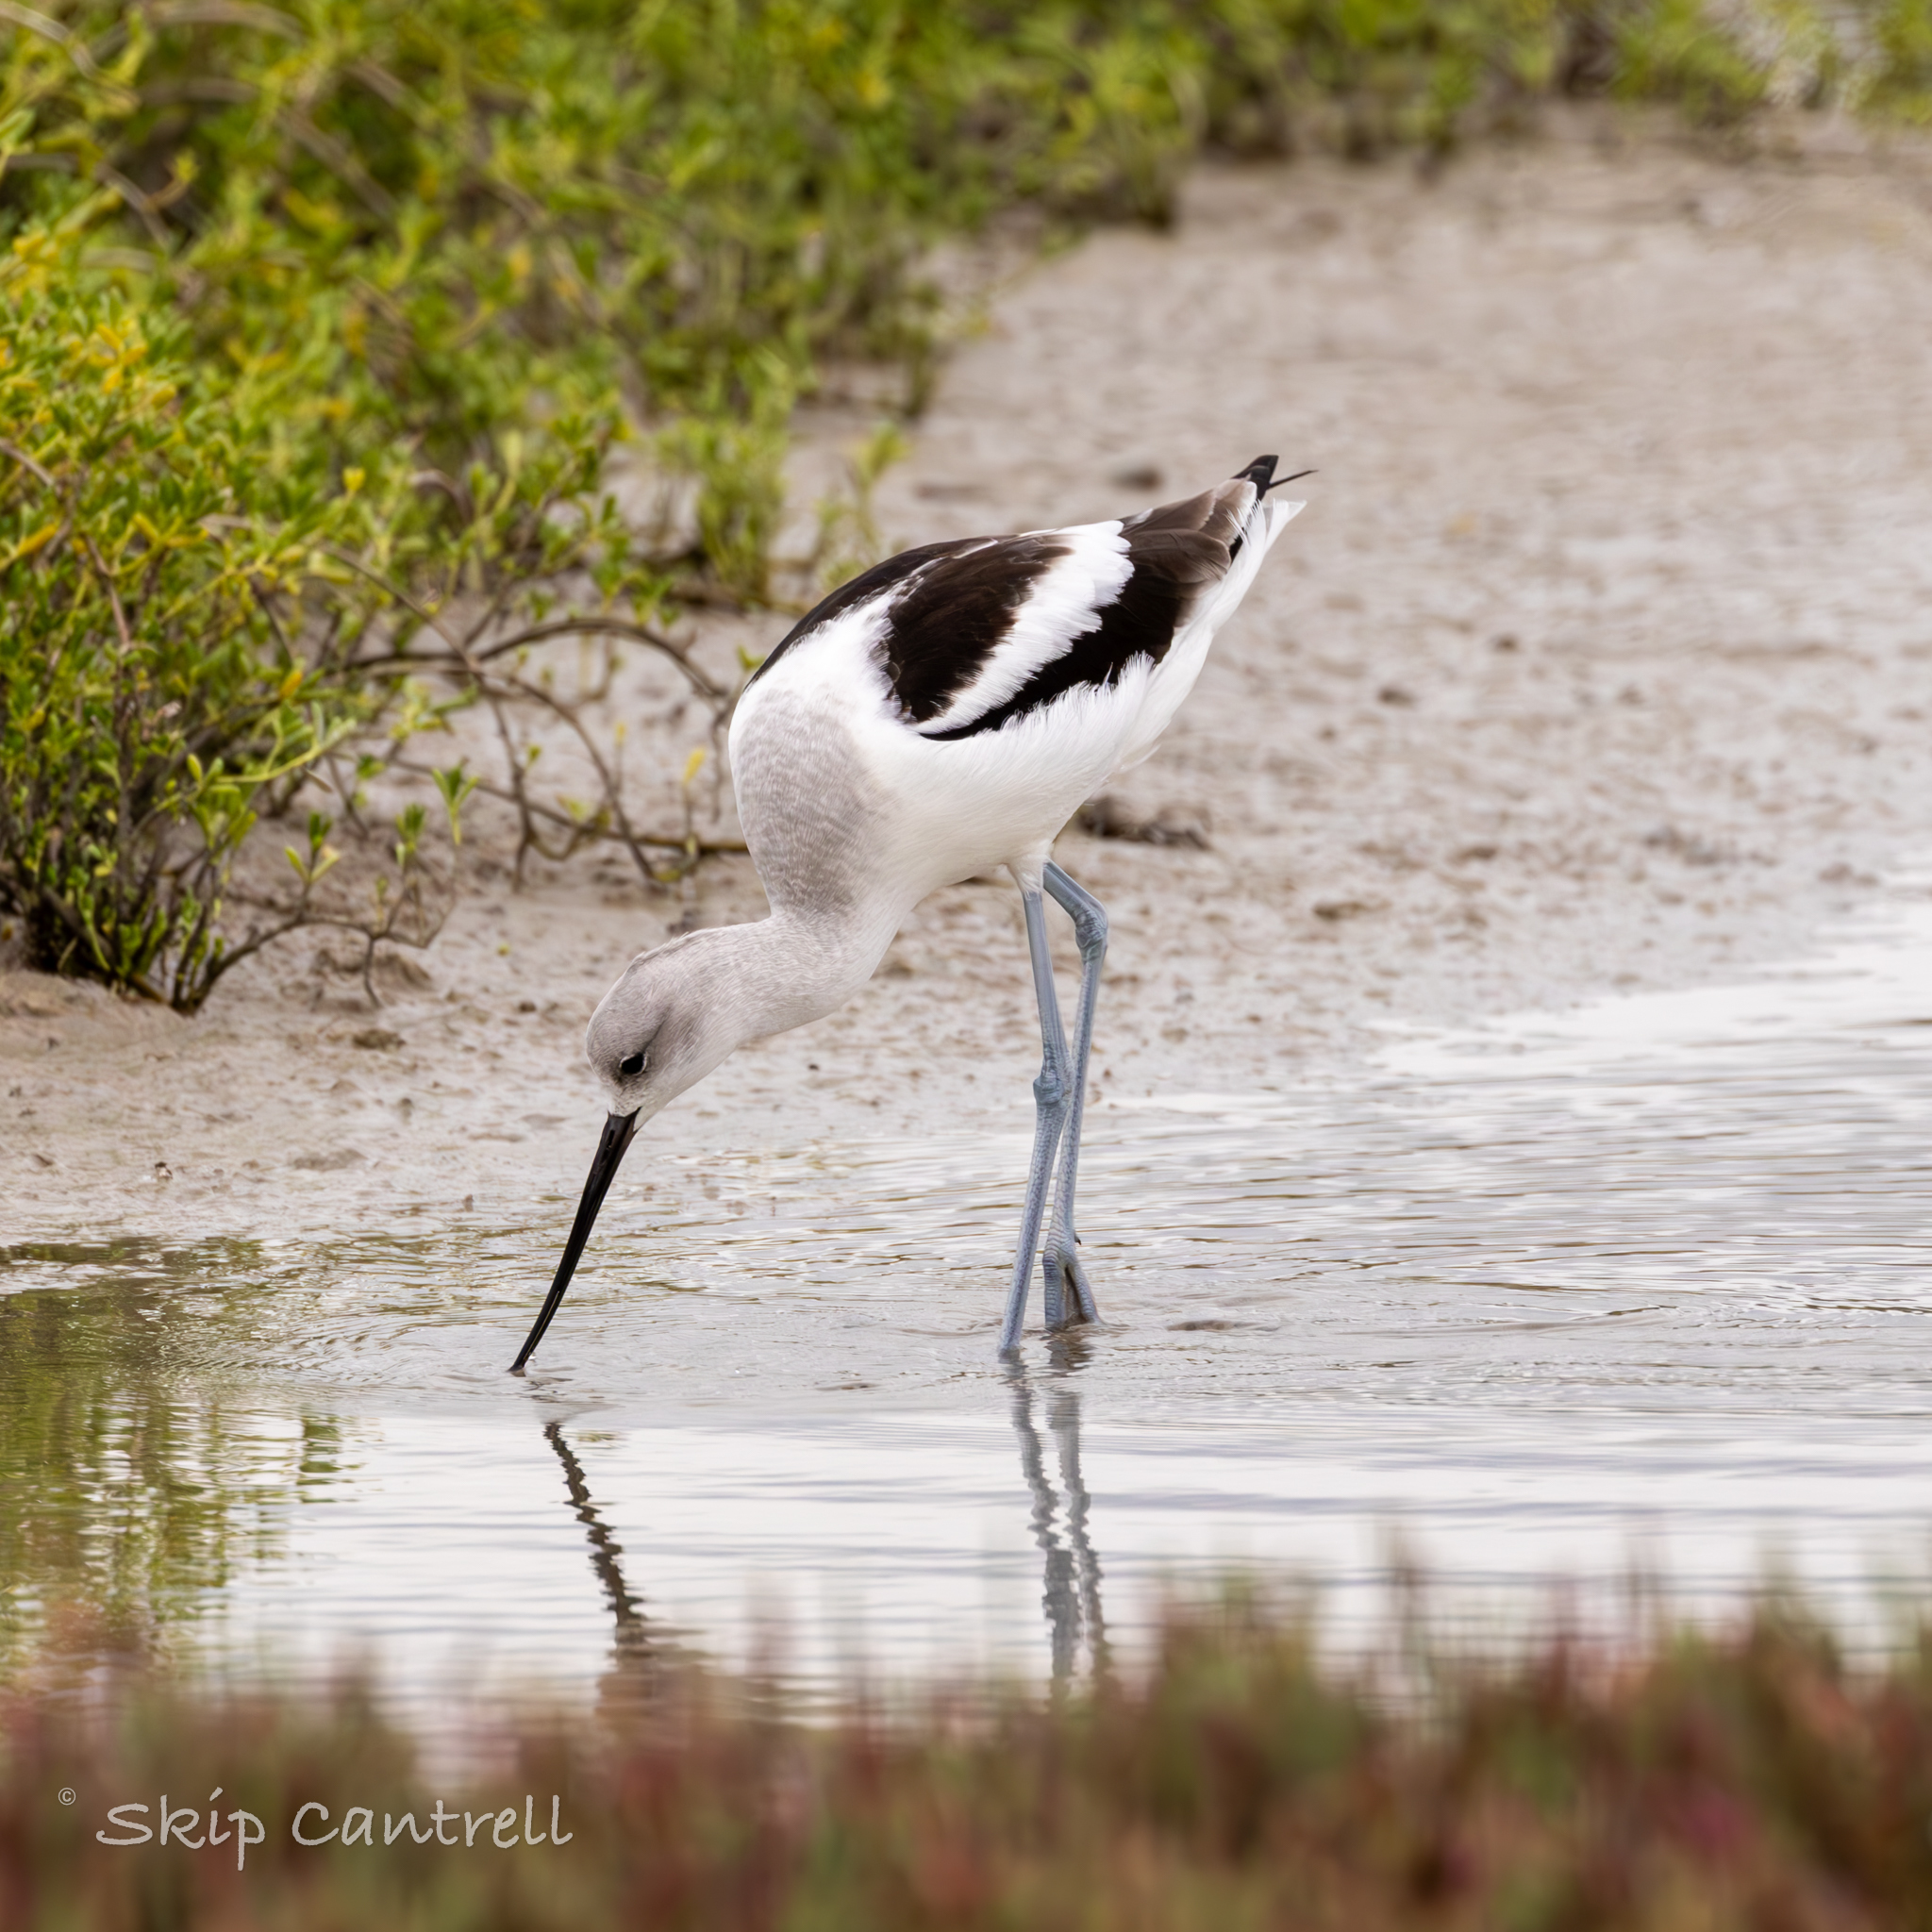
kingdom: Animalia
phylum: Chordata
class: Aves
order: Charadriiformes
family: Recurvirostridae
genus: Recurvirostra
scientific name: Recurvirostra americana
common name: American avocet
